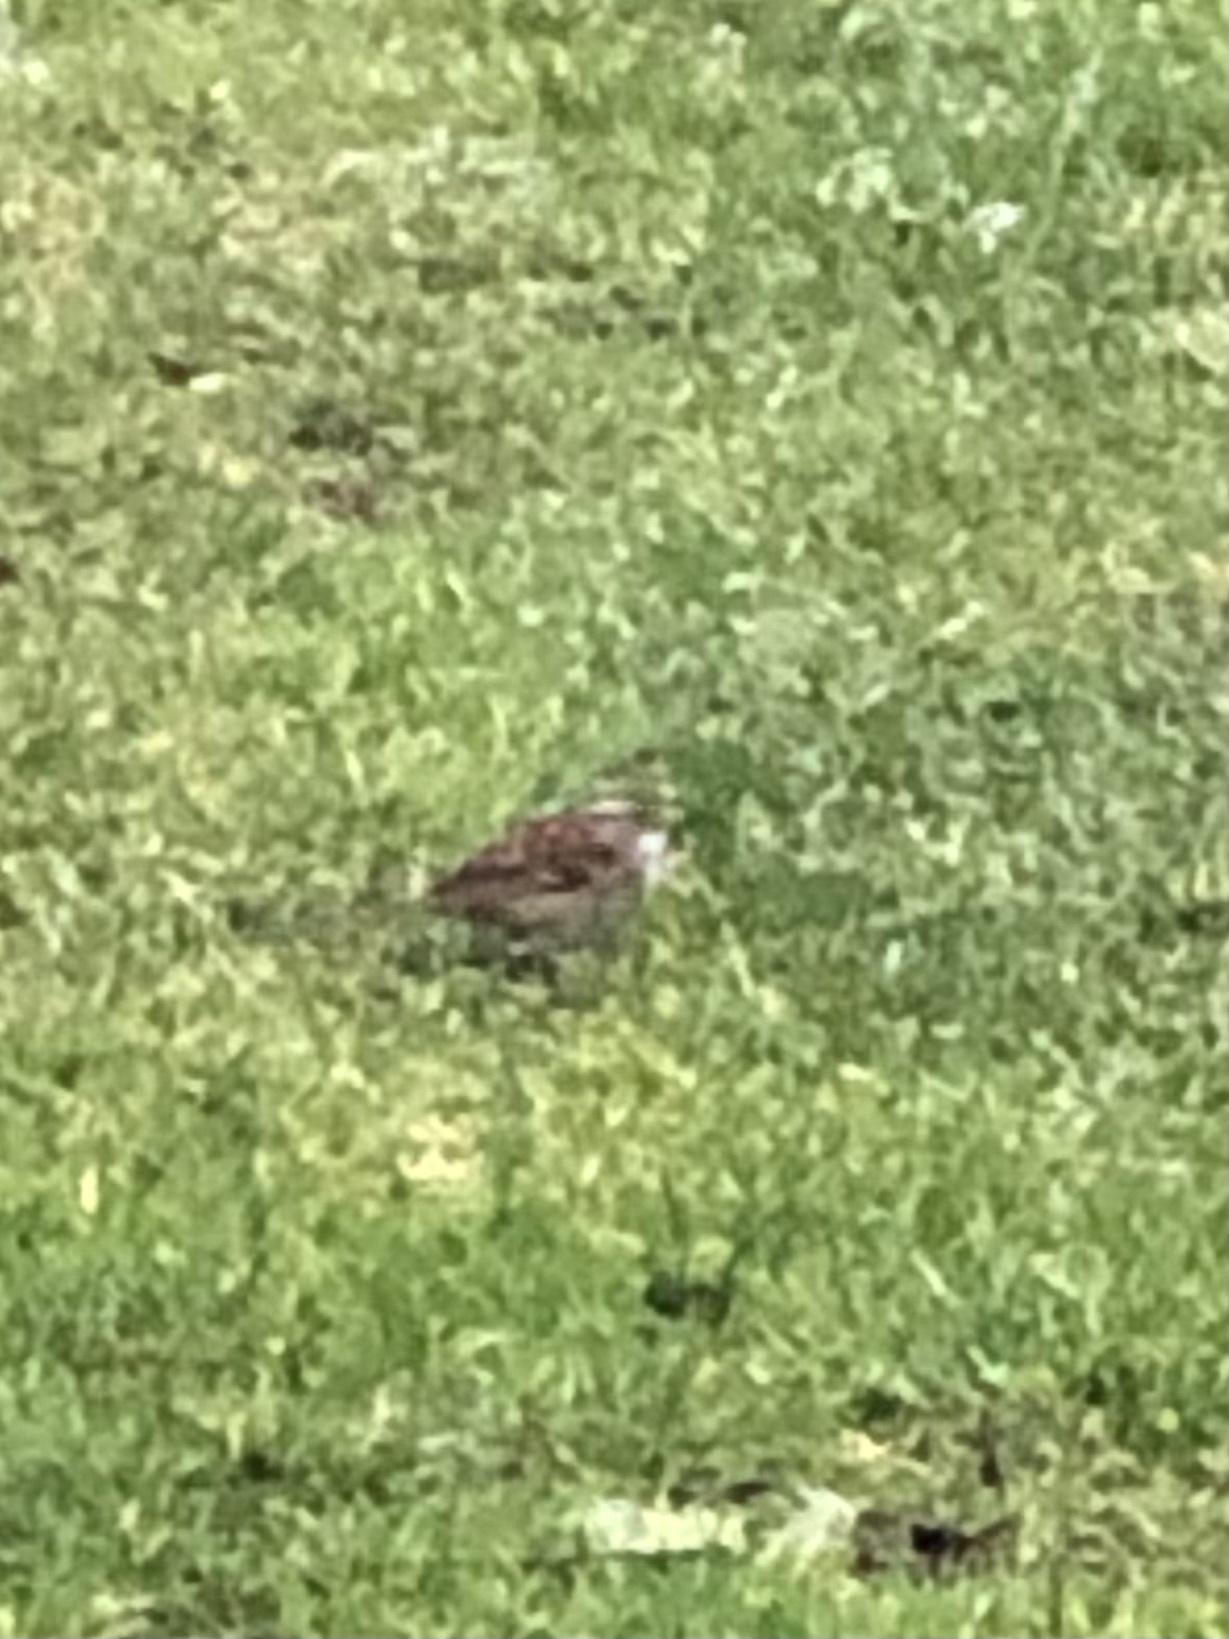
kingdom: Animalia
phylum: Chordata
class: Aves
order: Passeriformes
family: Passerellidae
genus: Zonotrichia
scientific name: Zonotrichia albicollis
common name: White-throated sparrow
